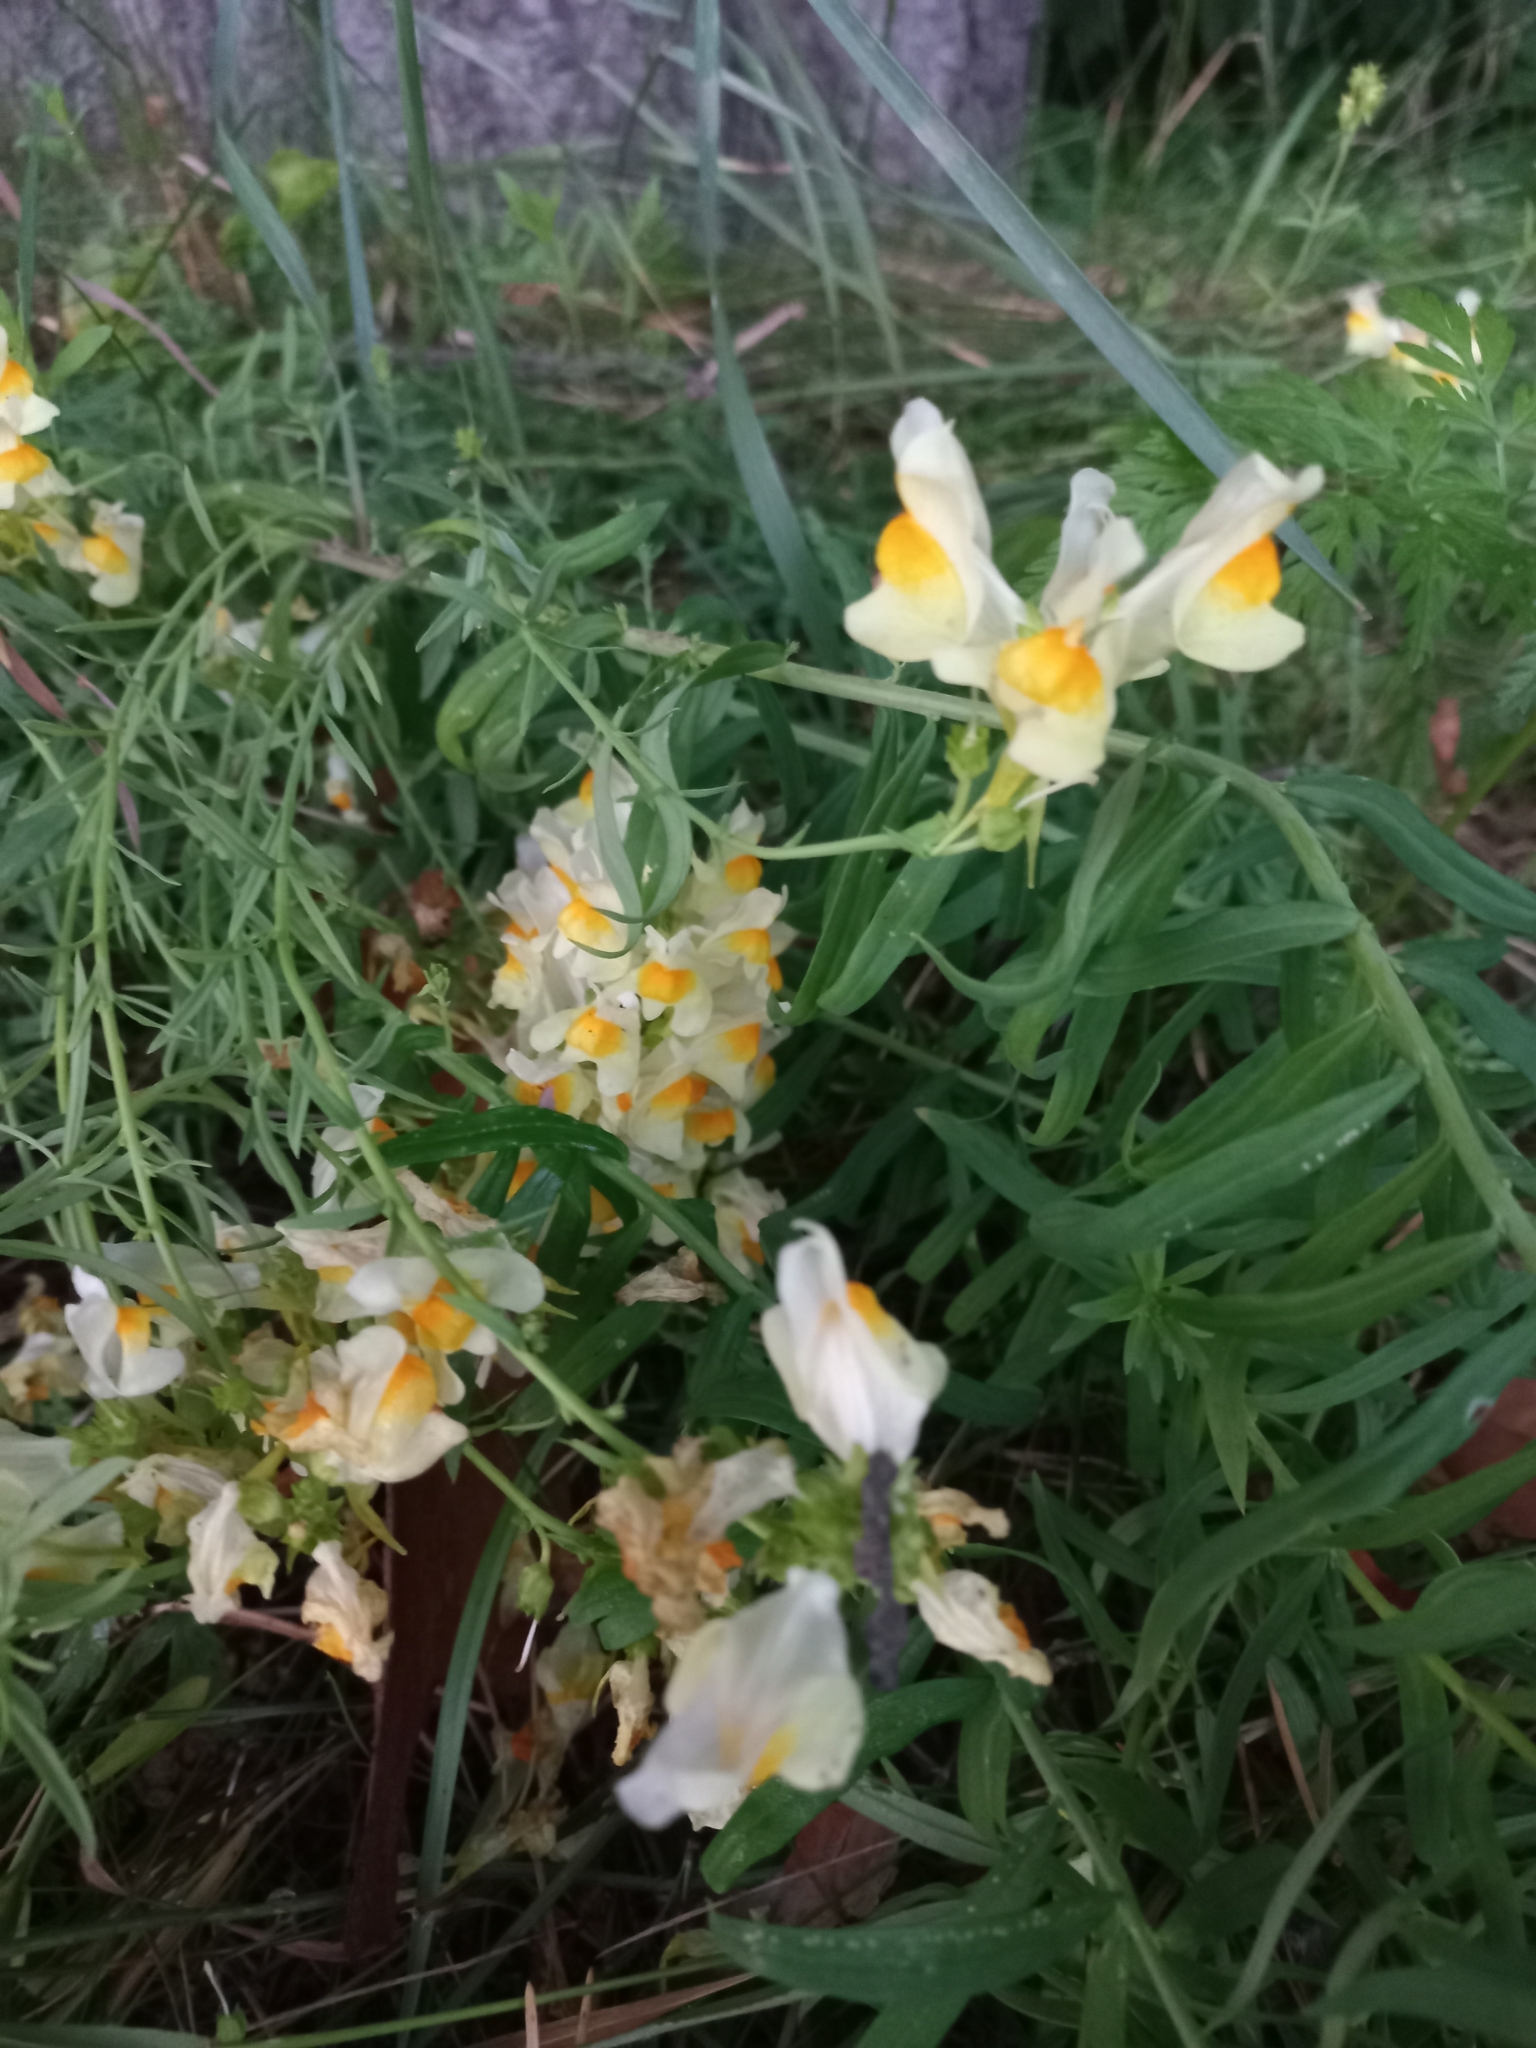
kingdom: Plantae
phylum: Tracheophyta
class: Magnoliopsida
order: Lamiales
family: Plantaginaceae
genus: Linaria
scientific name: Linaria vulgaris
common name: Butter and eggs
